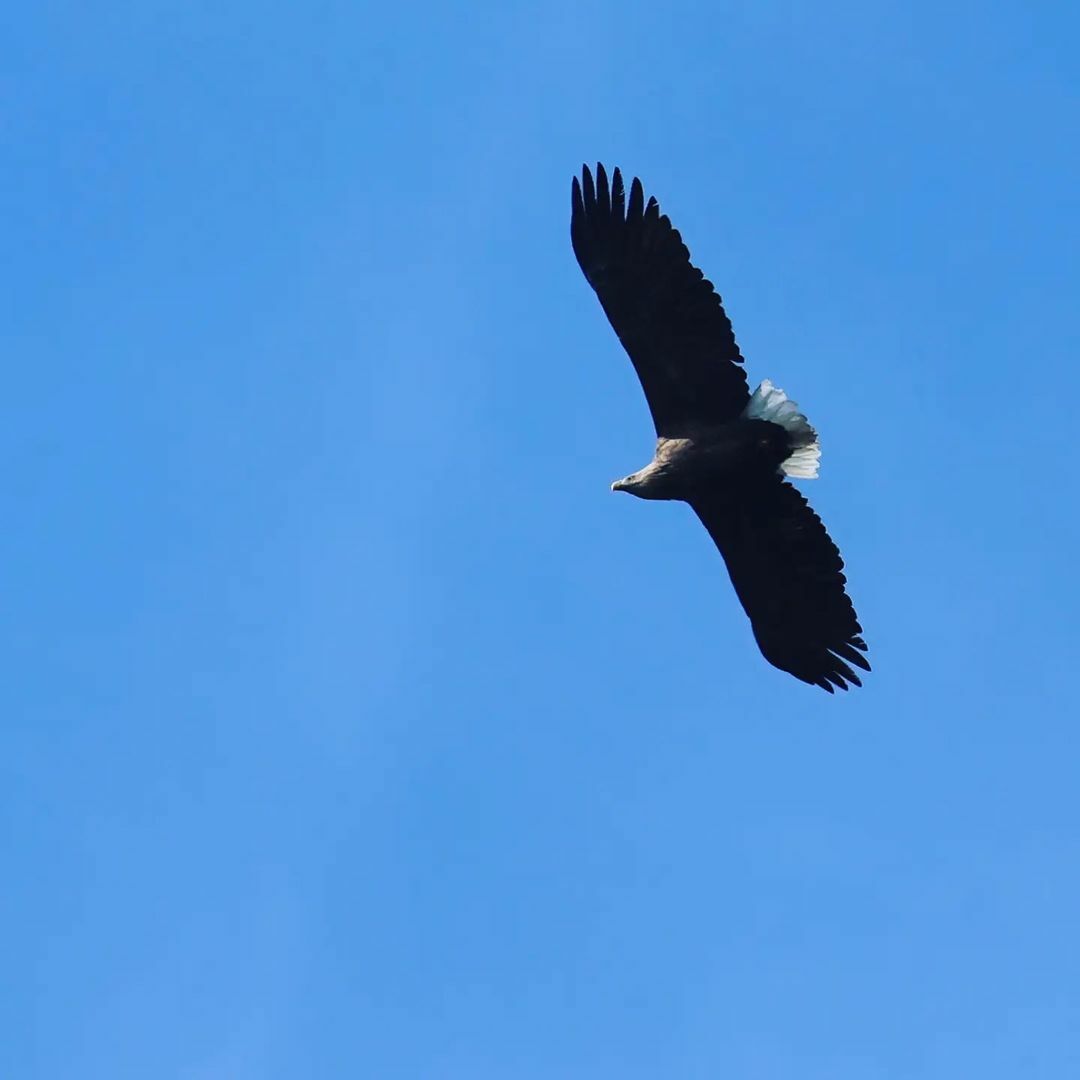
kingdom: Animalia
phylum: Chordata
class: Aves
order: Accipitriformes
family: Accipitridae
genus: Haliaeetus
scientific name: Haliaeetus albicilla
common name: White-tailed eagle
